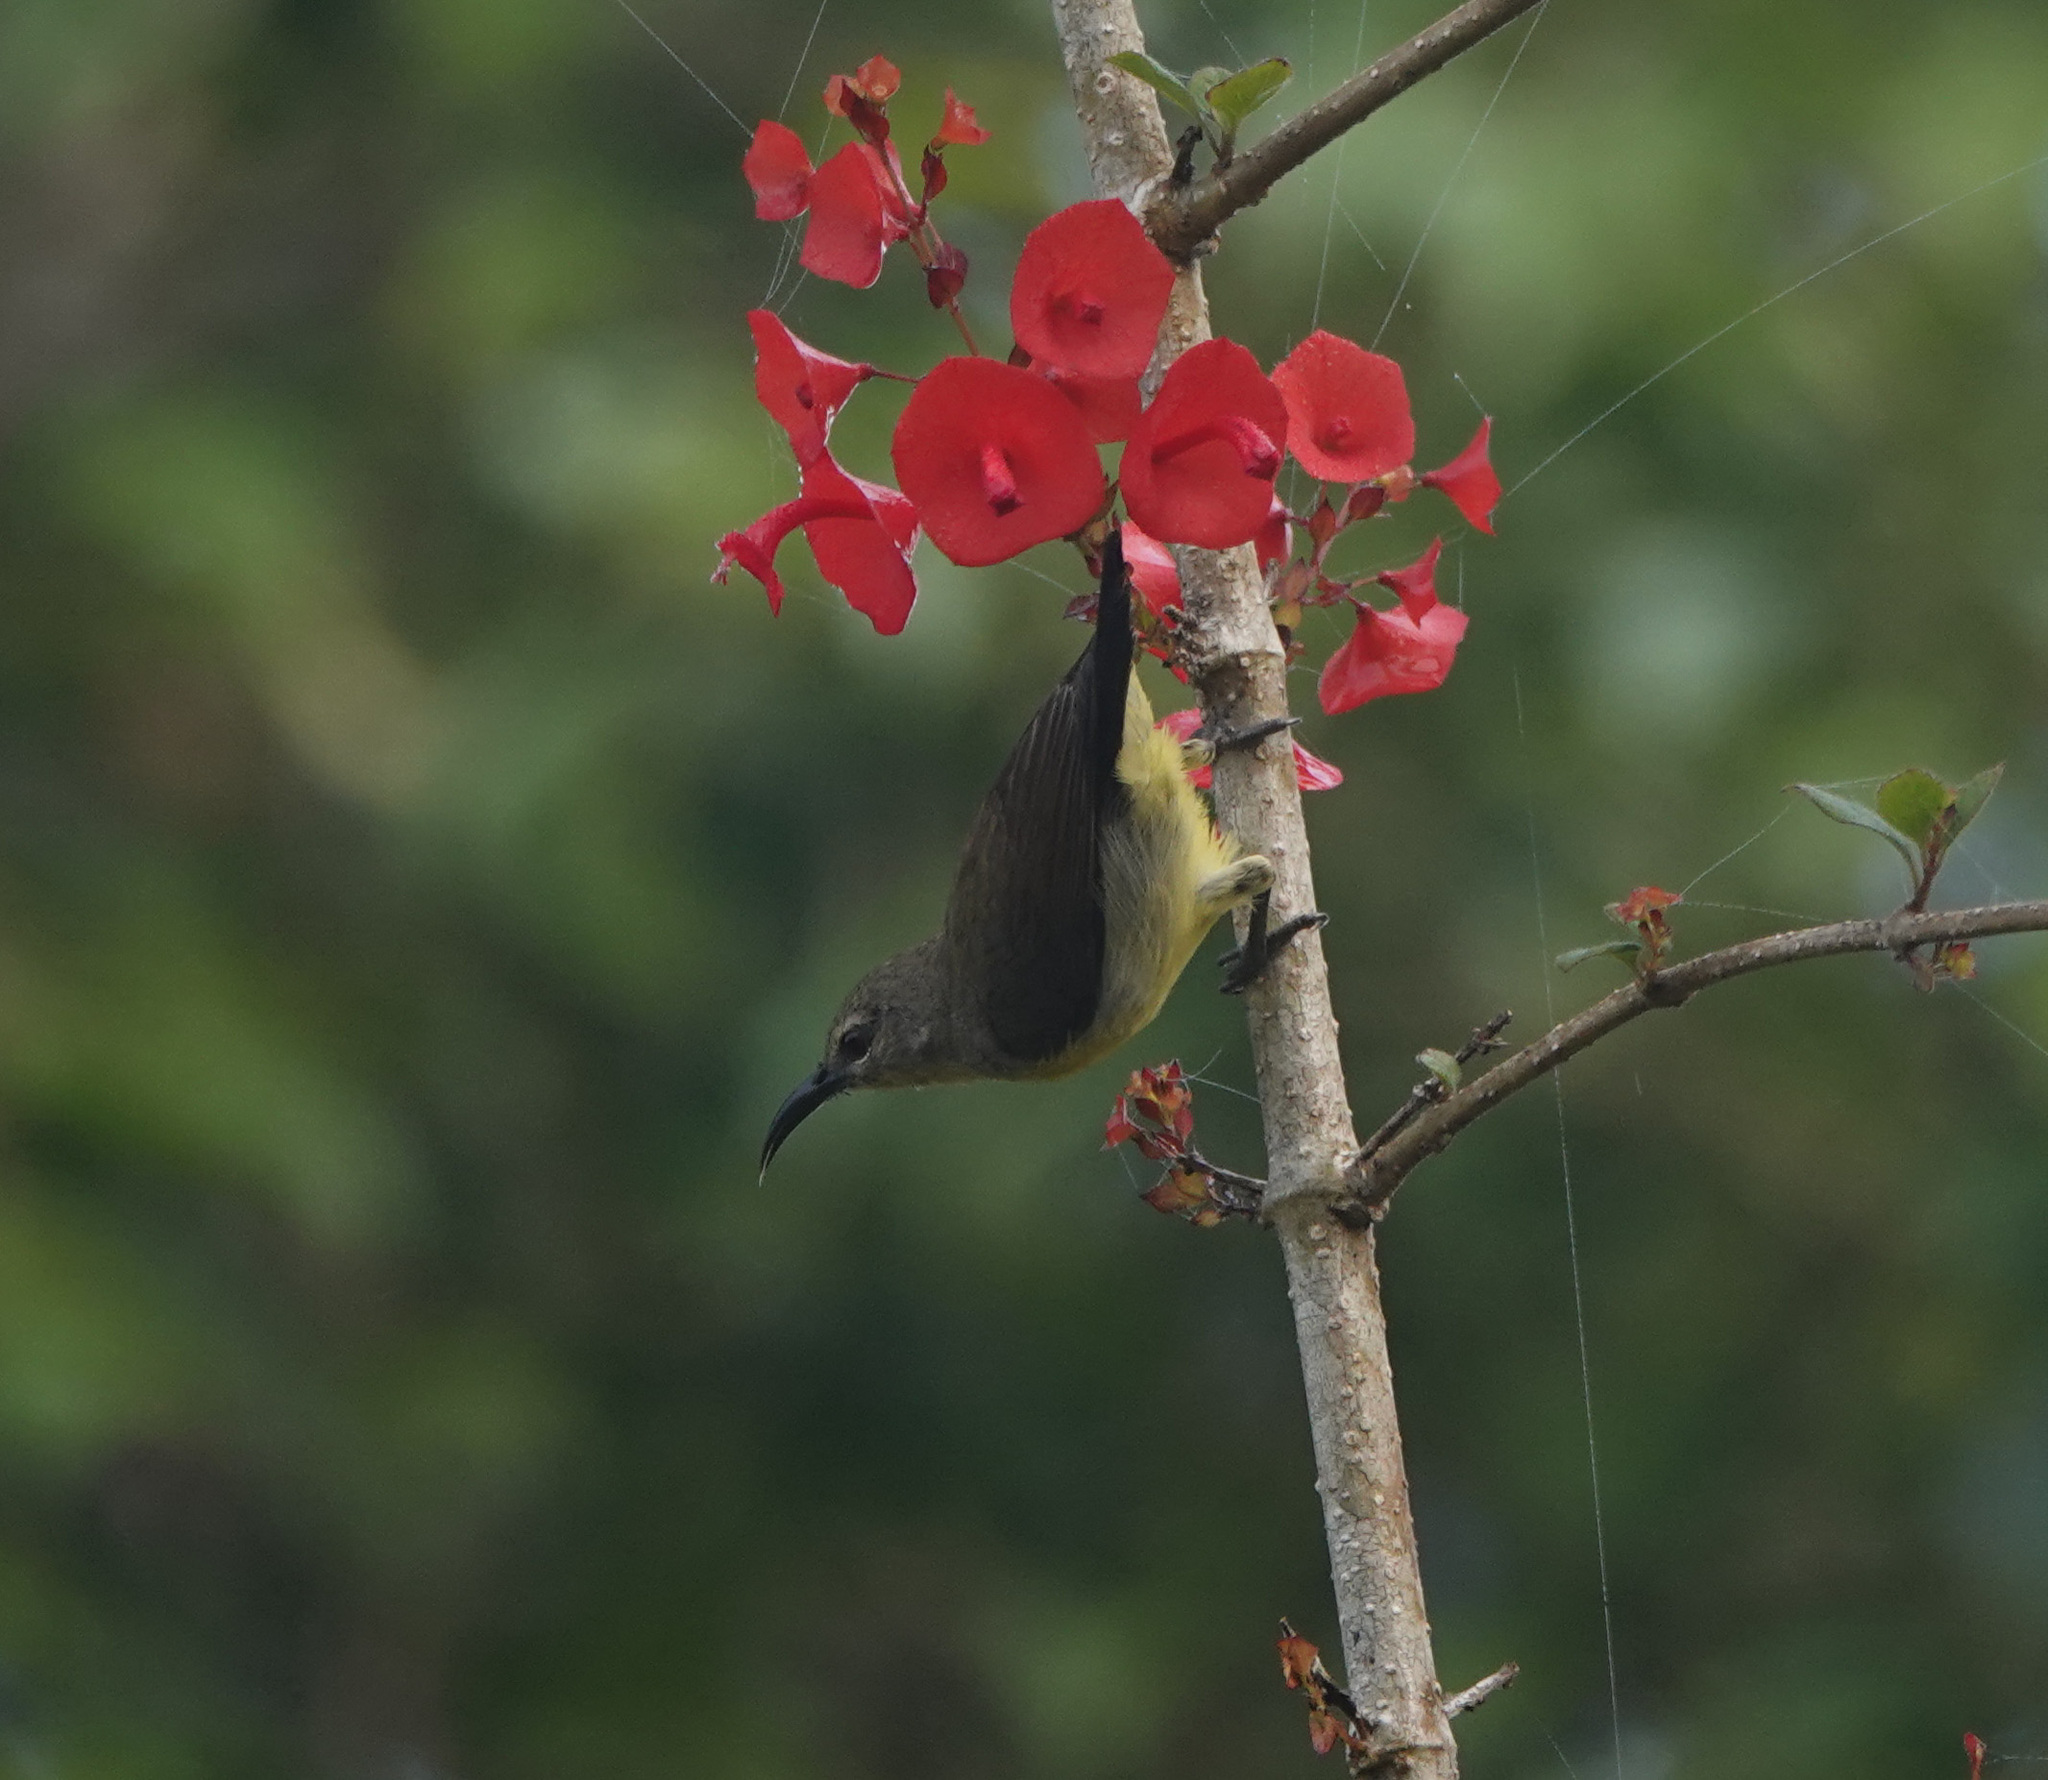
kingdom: Animalia
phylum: Chordata
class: Aves
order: Passeriformes
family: Nectariniidae
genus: Leptocoma
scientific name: Leptocoma zeylonica
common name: Purple-rumped sunbird
